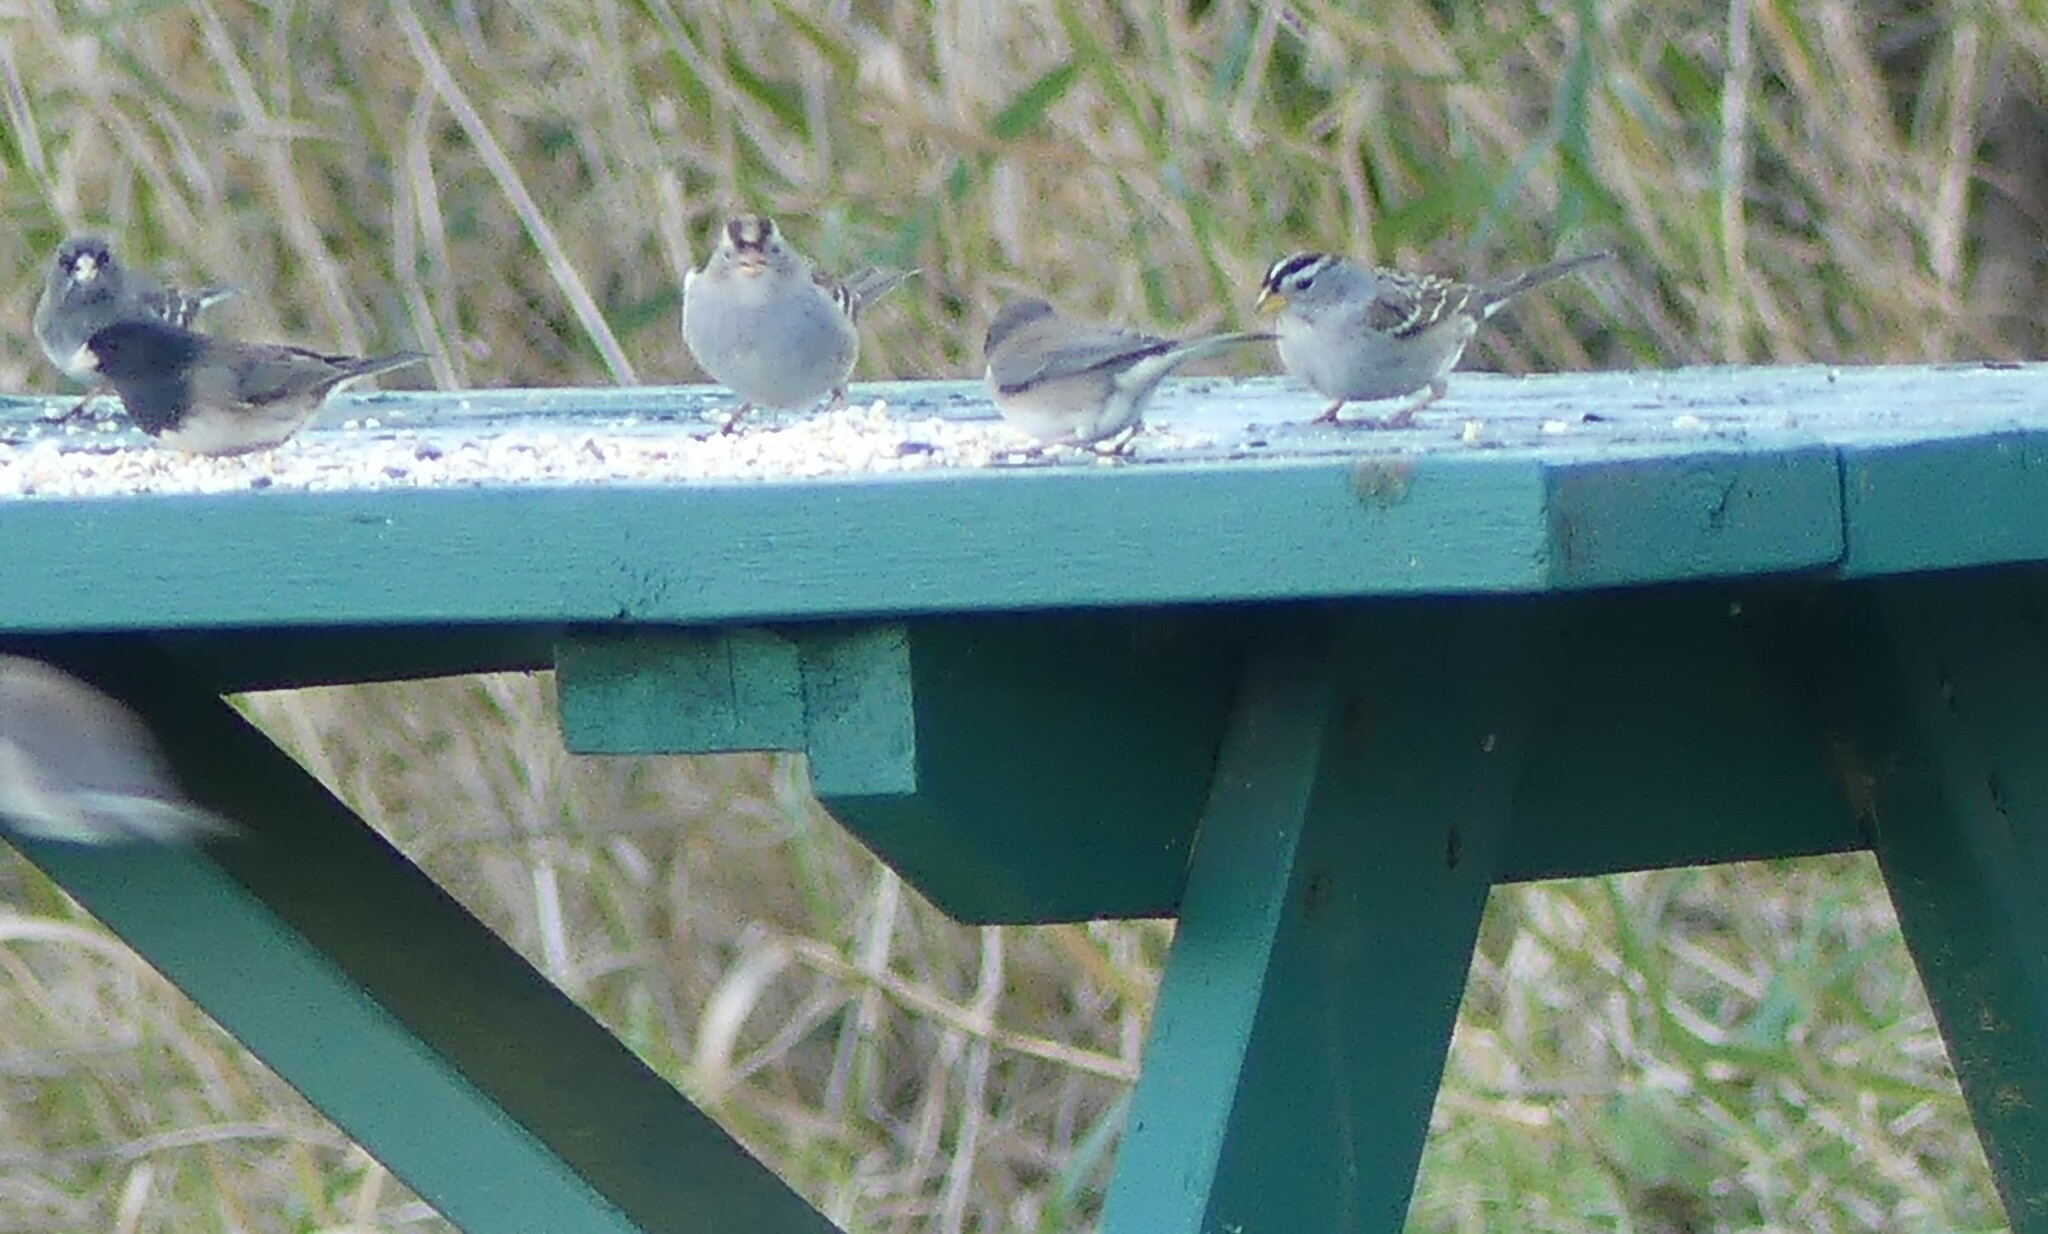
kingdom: Animalia
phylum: Chordata
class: Aves
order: Passeriformes
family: Passerellidae
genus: Junco
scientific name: Junco hyemalis
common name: Dark-eyed junco
